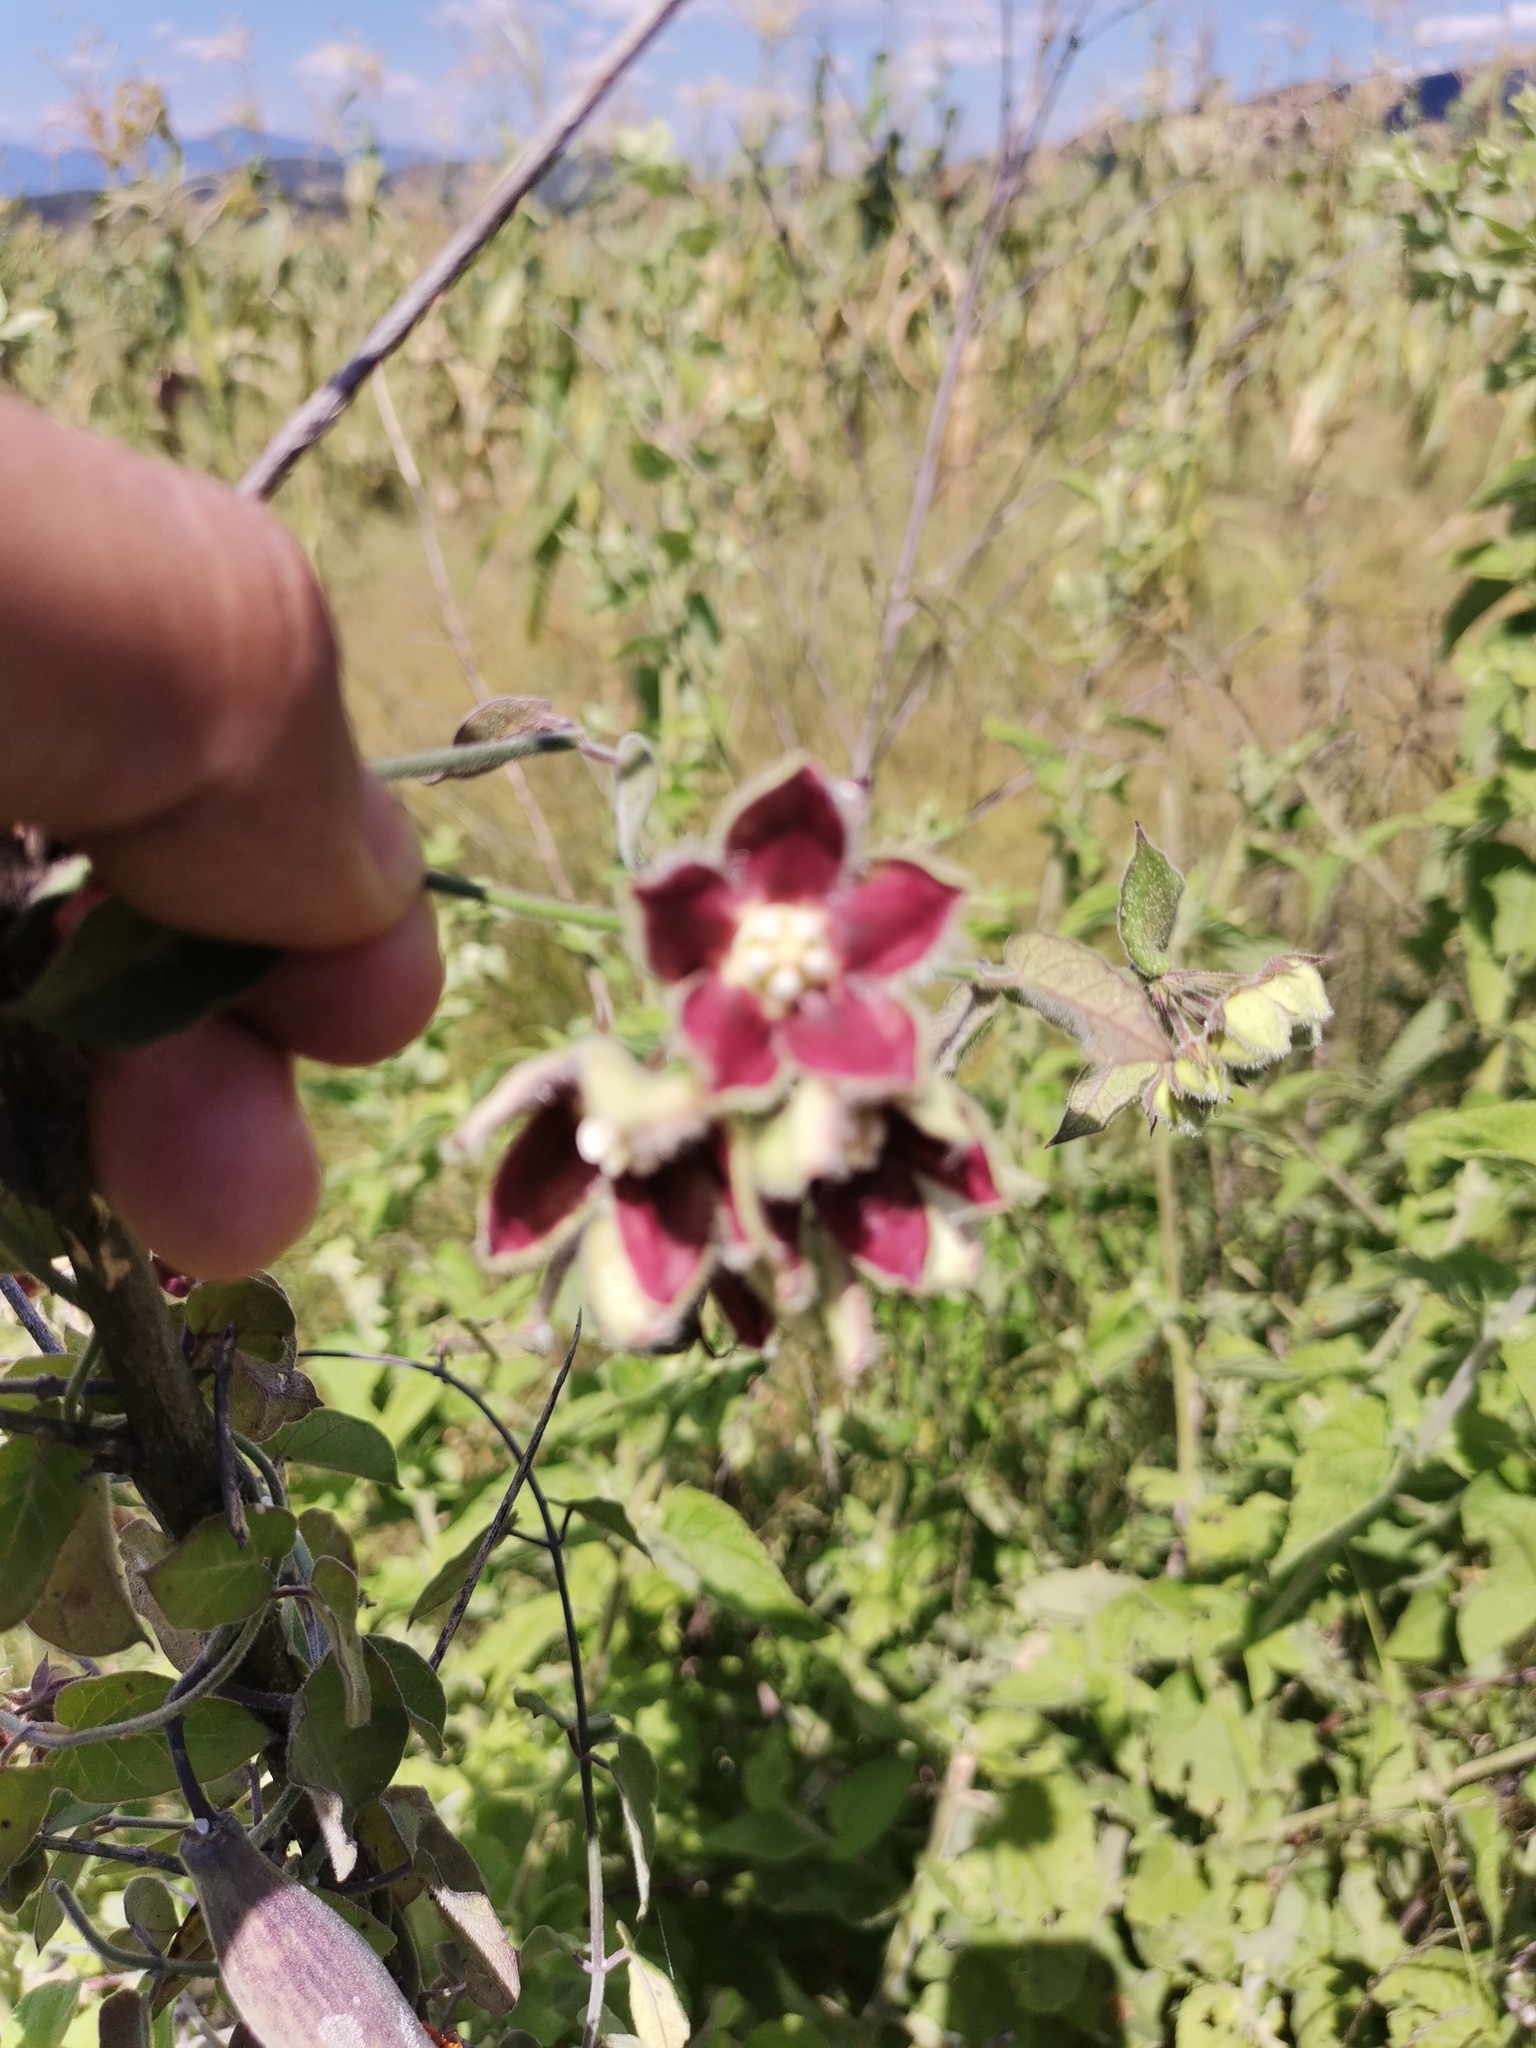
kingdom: Plantae
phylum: Tracheophyta
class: Magnoliopsida
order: Gentianales
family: Apocynaceae
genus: Funastrum
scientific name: Funastrum elegans
